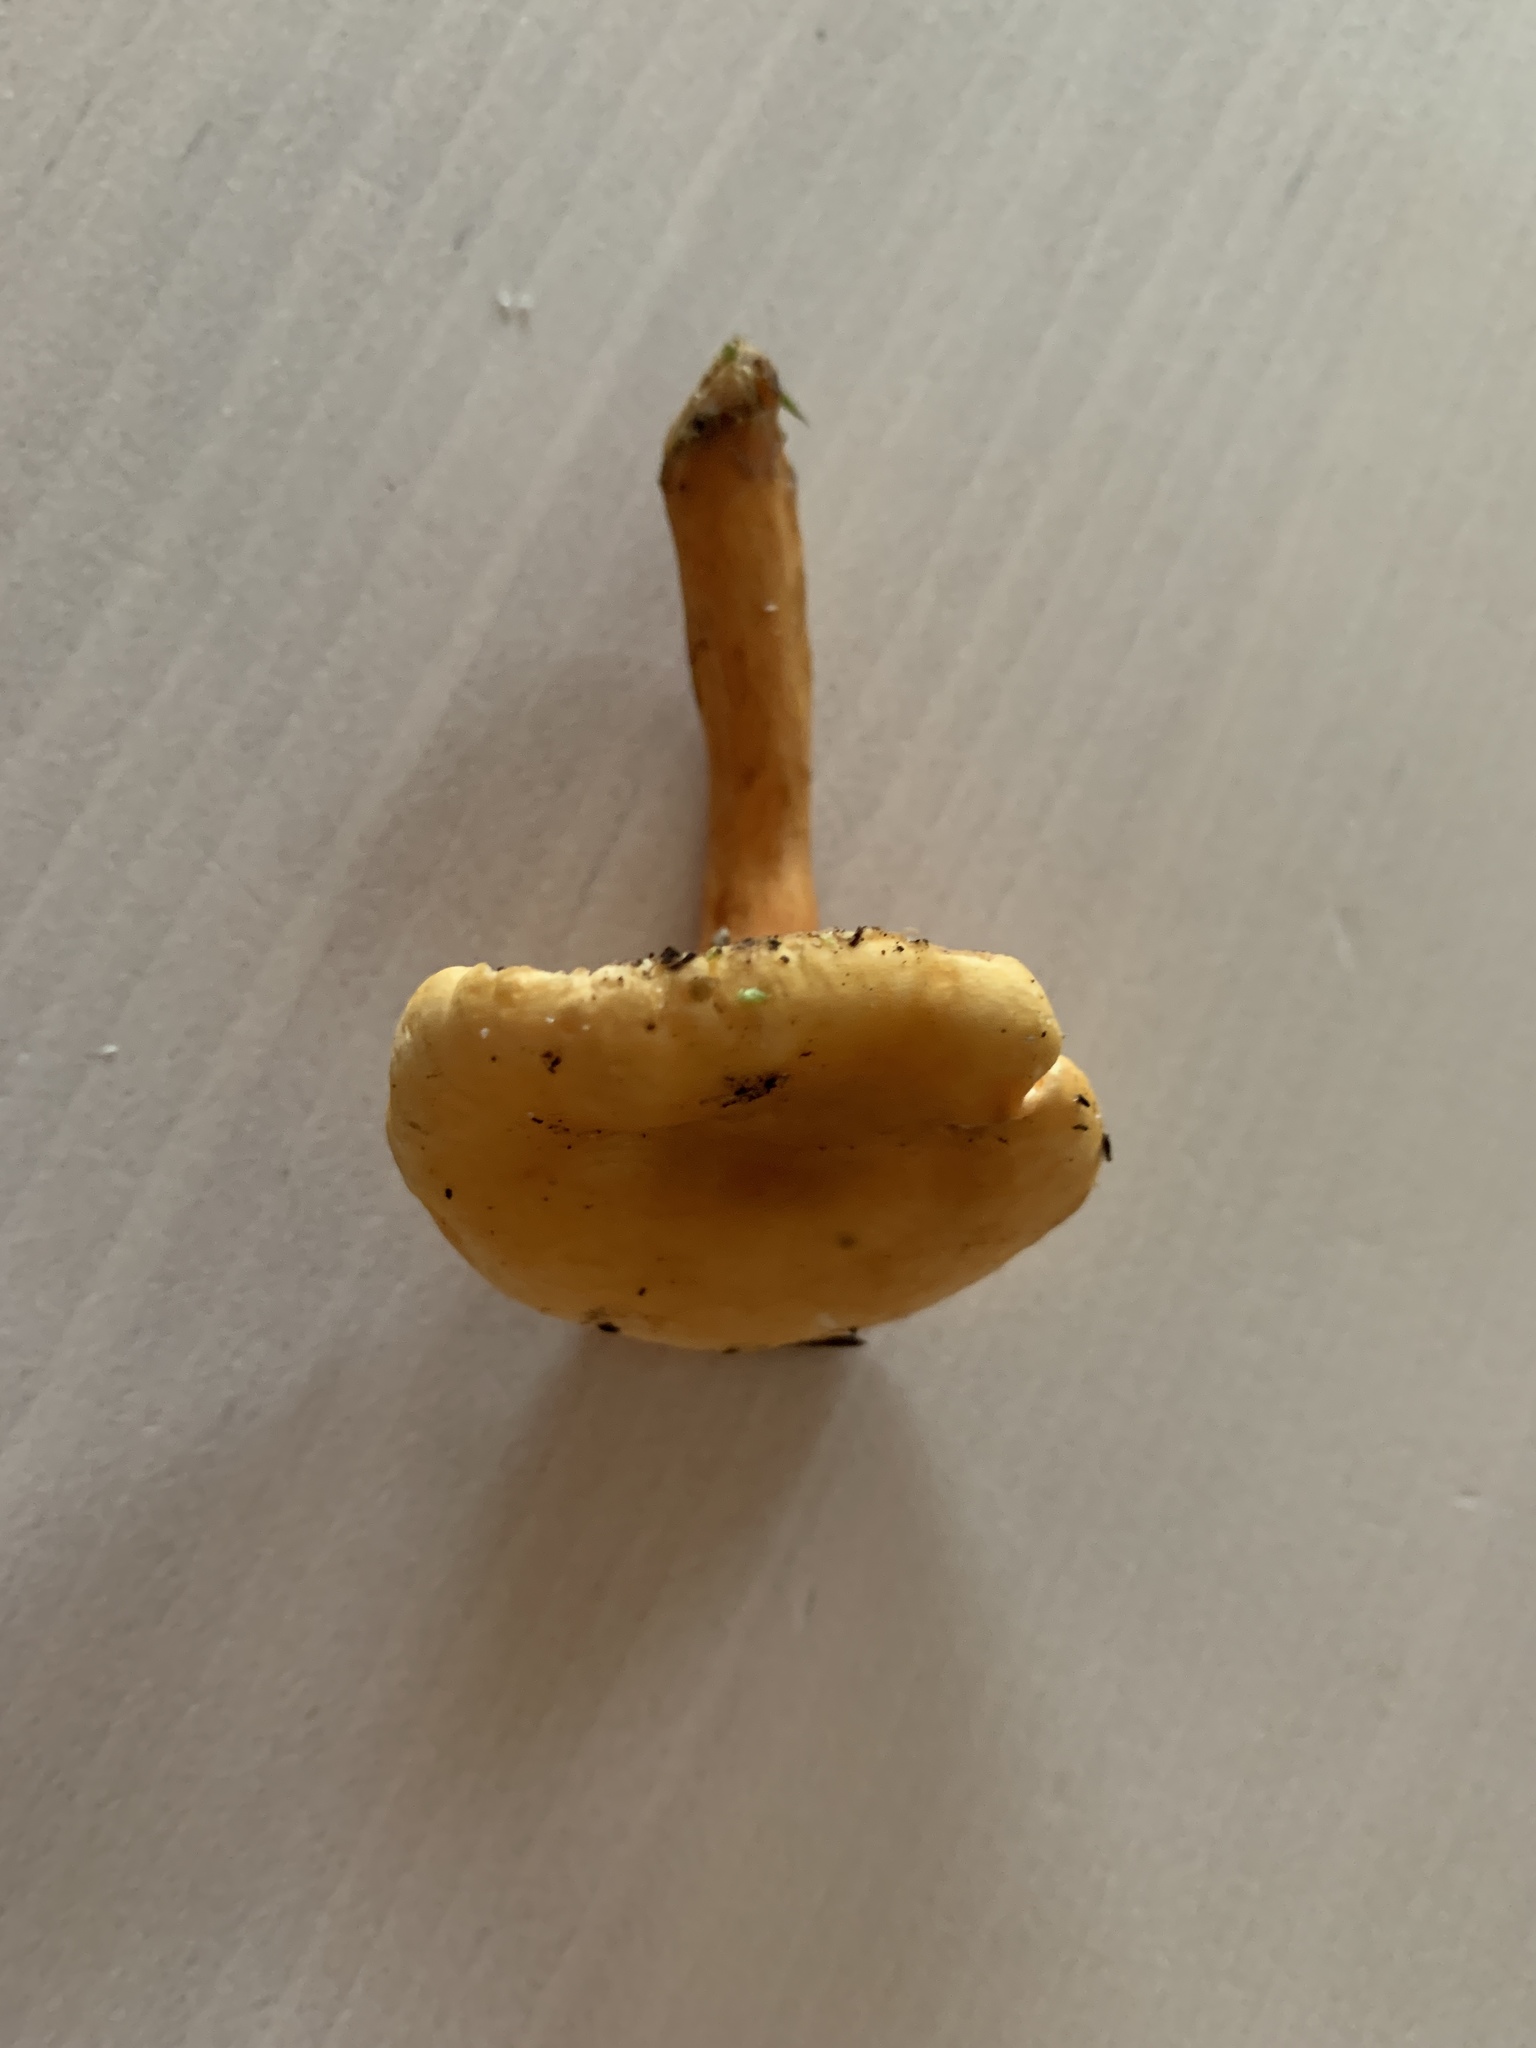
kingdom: Fungi
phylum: Basidiomycota
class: Agaricomycetes
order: Boletales
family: Hygrophoropsidaceae
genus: Hygrophoropsis
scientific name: Hygrophoropsis aurantiaca
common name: False chanterelle
